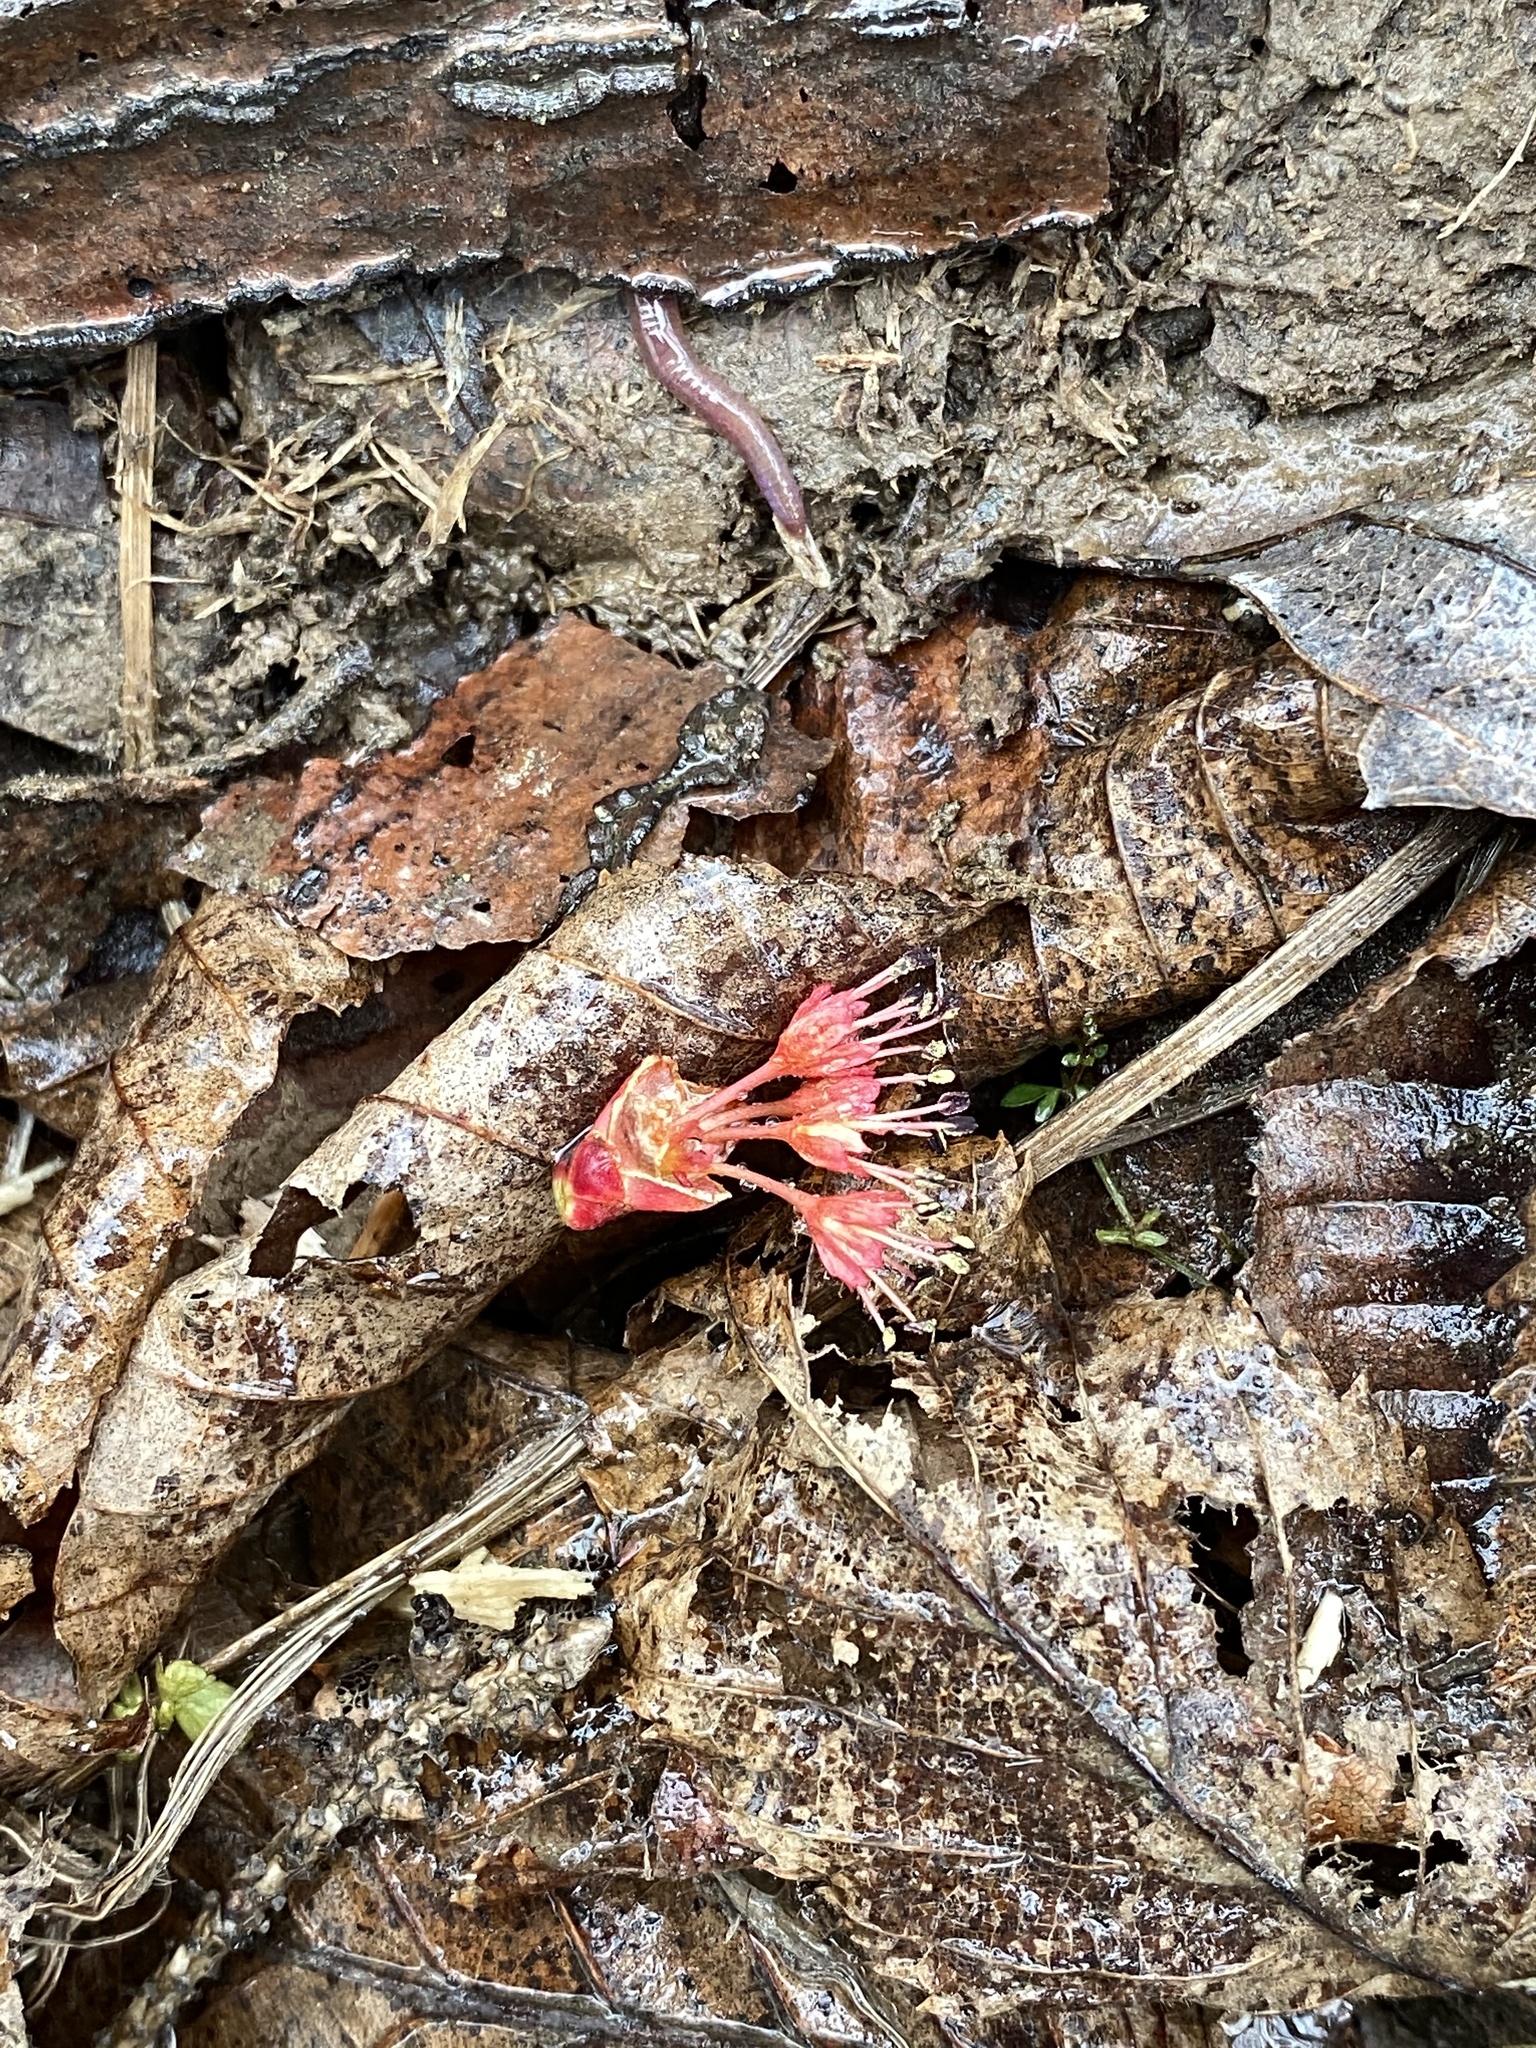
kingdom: Plantae
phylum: Tracheophyta
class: Magnoliopsida
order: Sapindales
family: Sapindaceae
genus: Acer
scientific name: Acer rubrum
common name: Red maple
